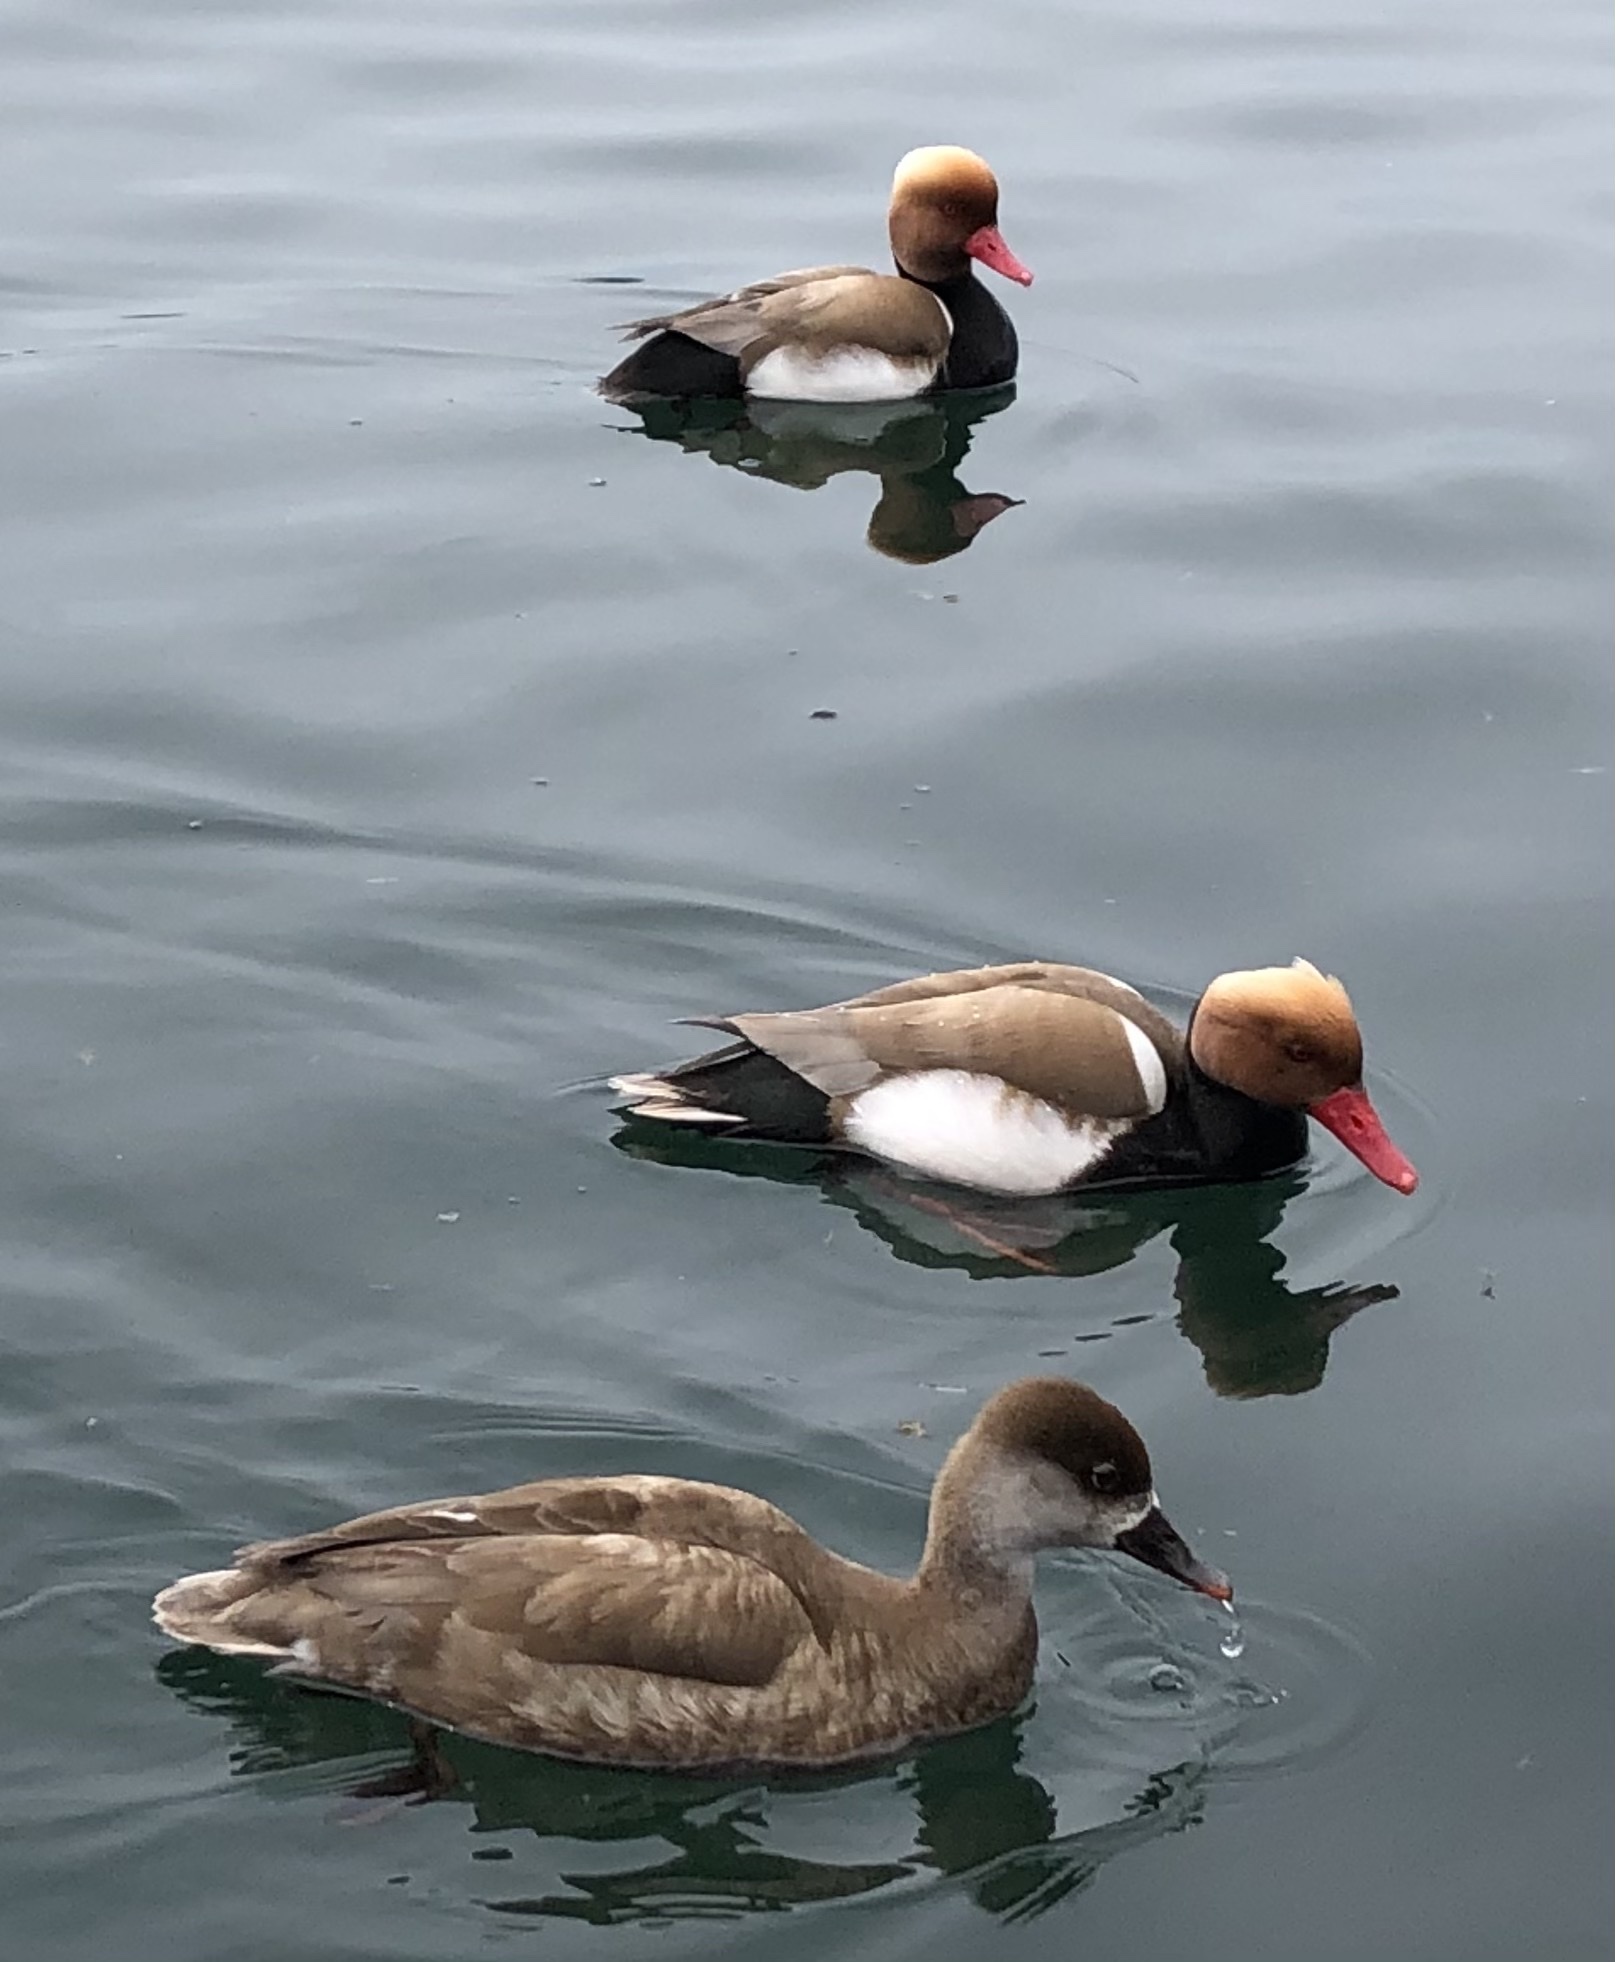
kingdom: Animalia
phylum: Chordata
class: Aves
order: Anseriformes
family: Anatidae
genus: Netta
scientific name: Netta rufina
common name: Red-crested pochard
